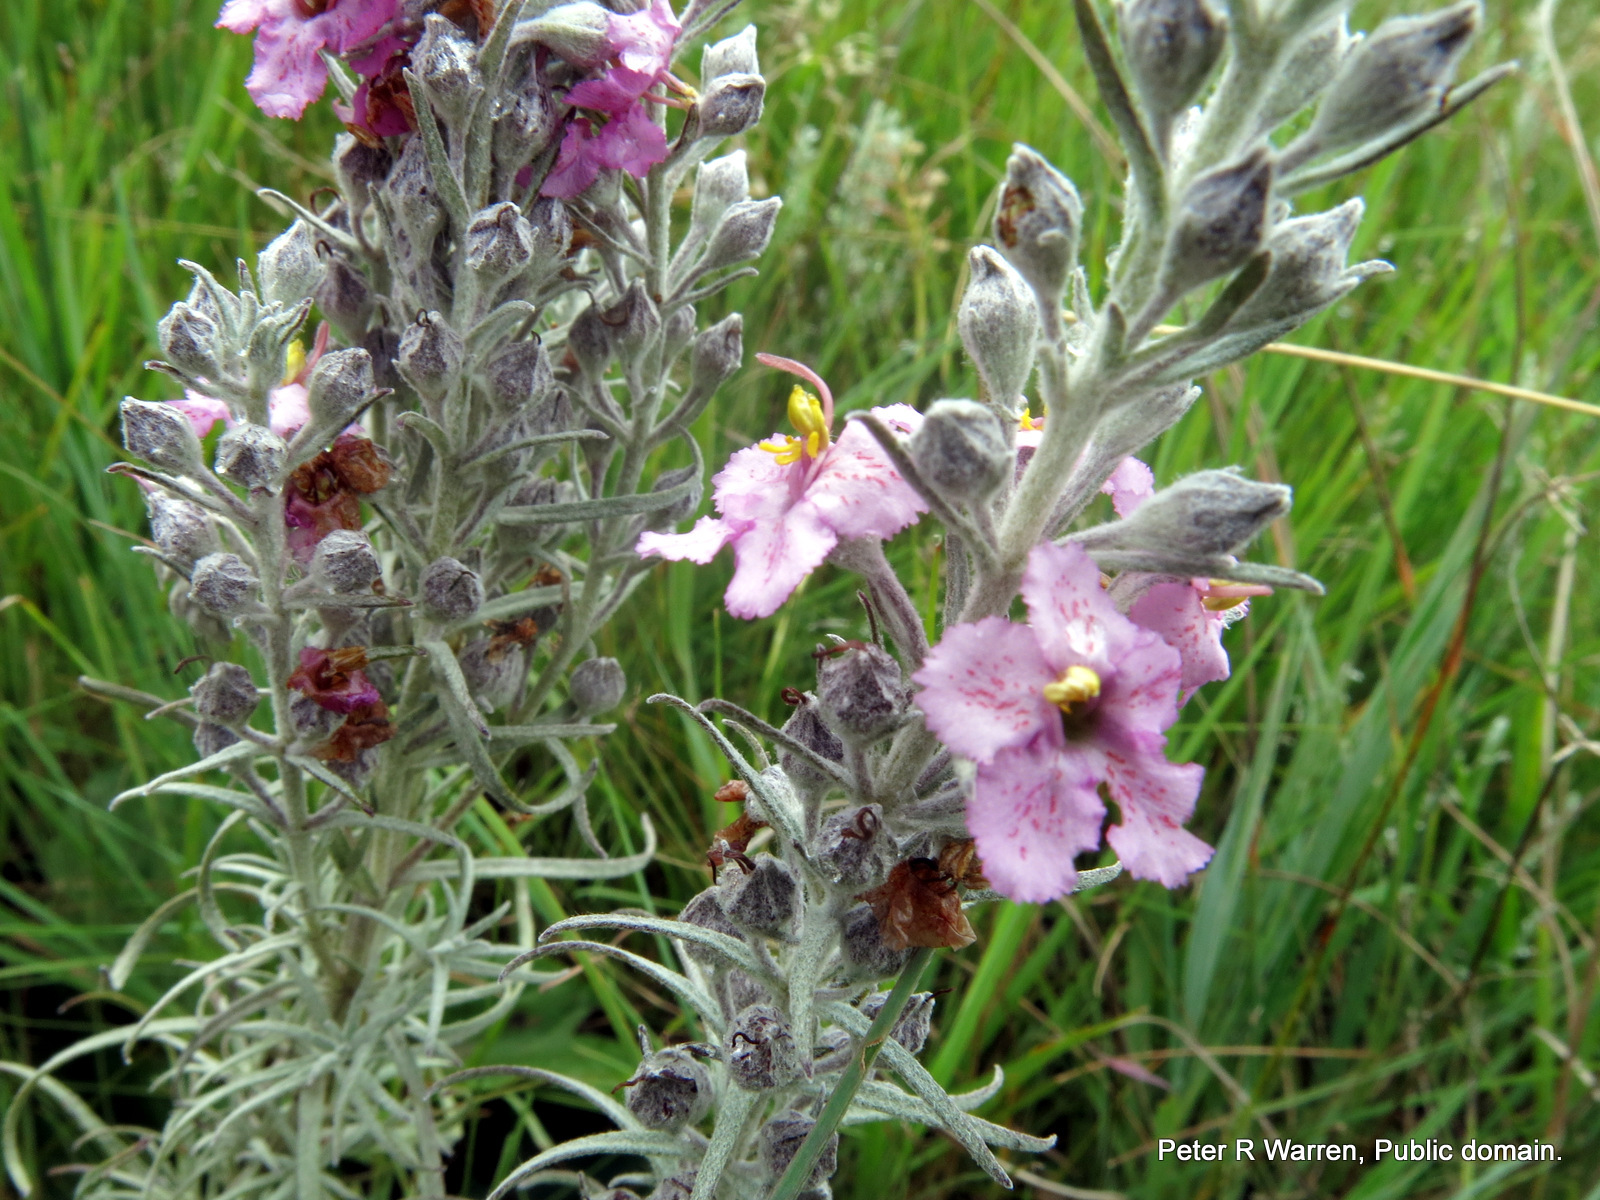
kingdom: Plantae
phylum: Tracheophyta
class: Magnoliopsida
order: Lamiales
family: Orobanchaceae
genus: Sopubia
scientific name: Sopubia cana
